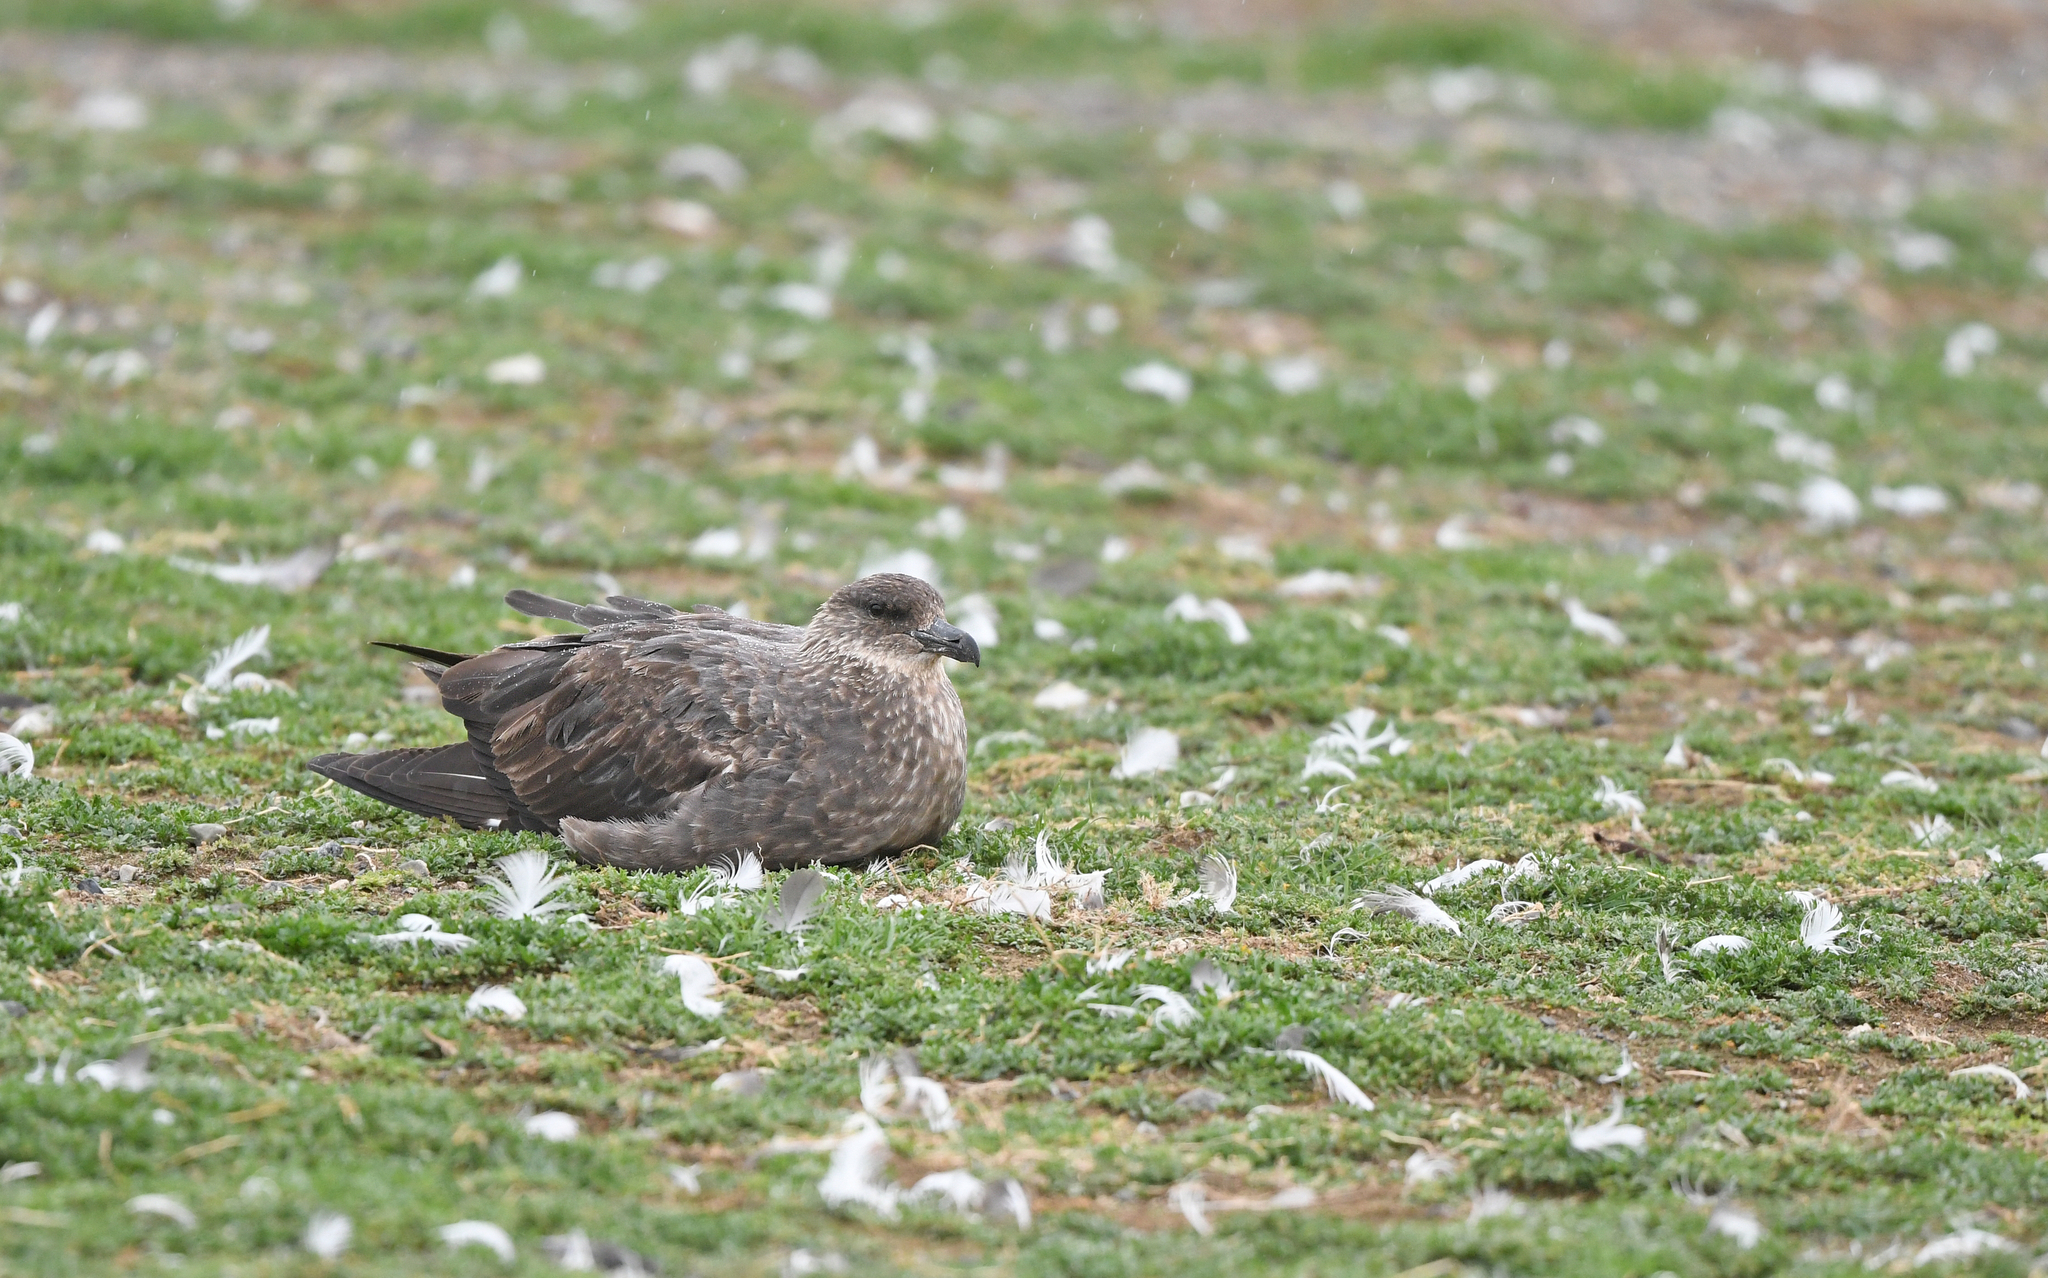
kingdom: Animalia
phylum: Chordata
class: Aves
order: Charadriiformes
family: Stercorariidae
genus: Stercorarius
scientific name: Stercorarius chilensis
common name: Chilean skua
